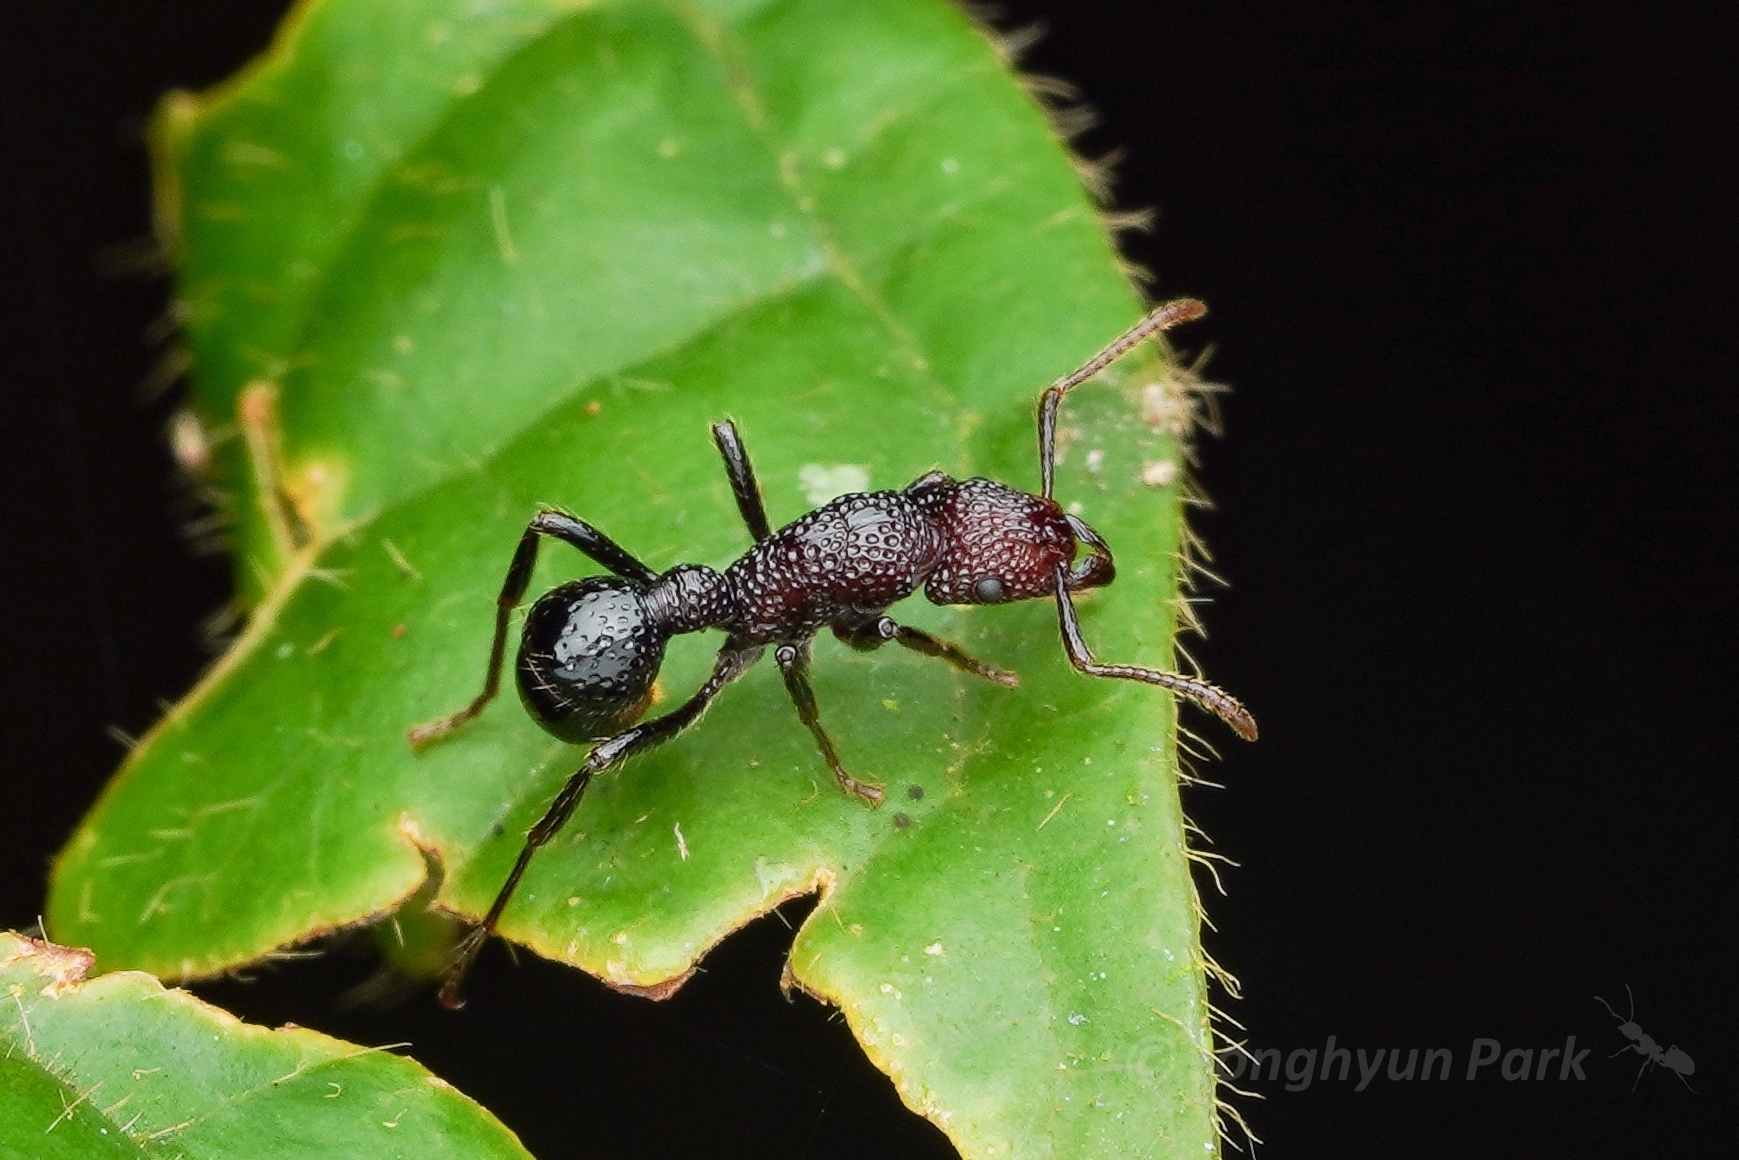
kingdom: Animalia
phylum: Arthropoda
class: Insecta
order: Hymenoptera
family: Formicidae
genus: Stictoponera
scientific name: Stictoponera
